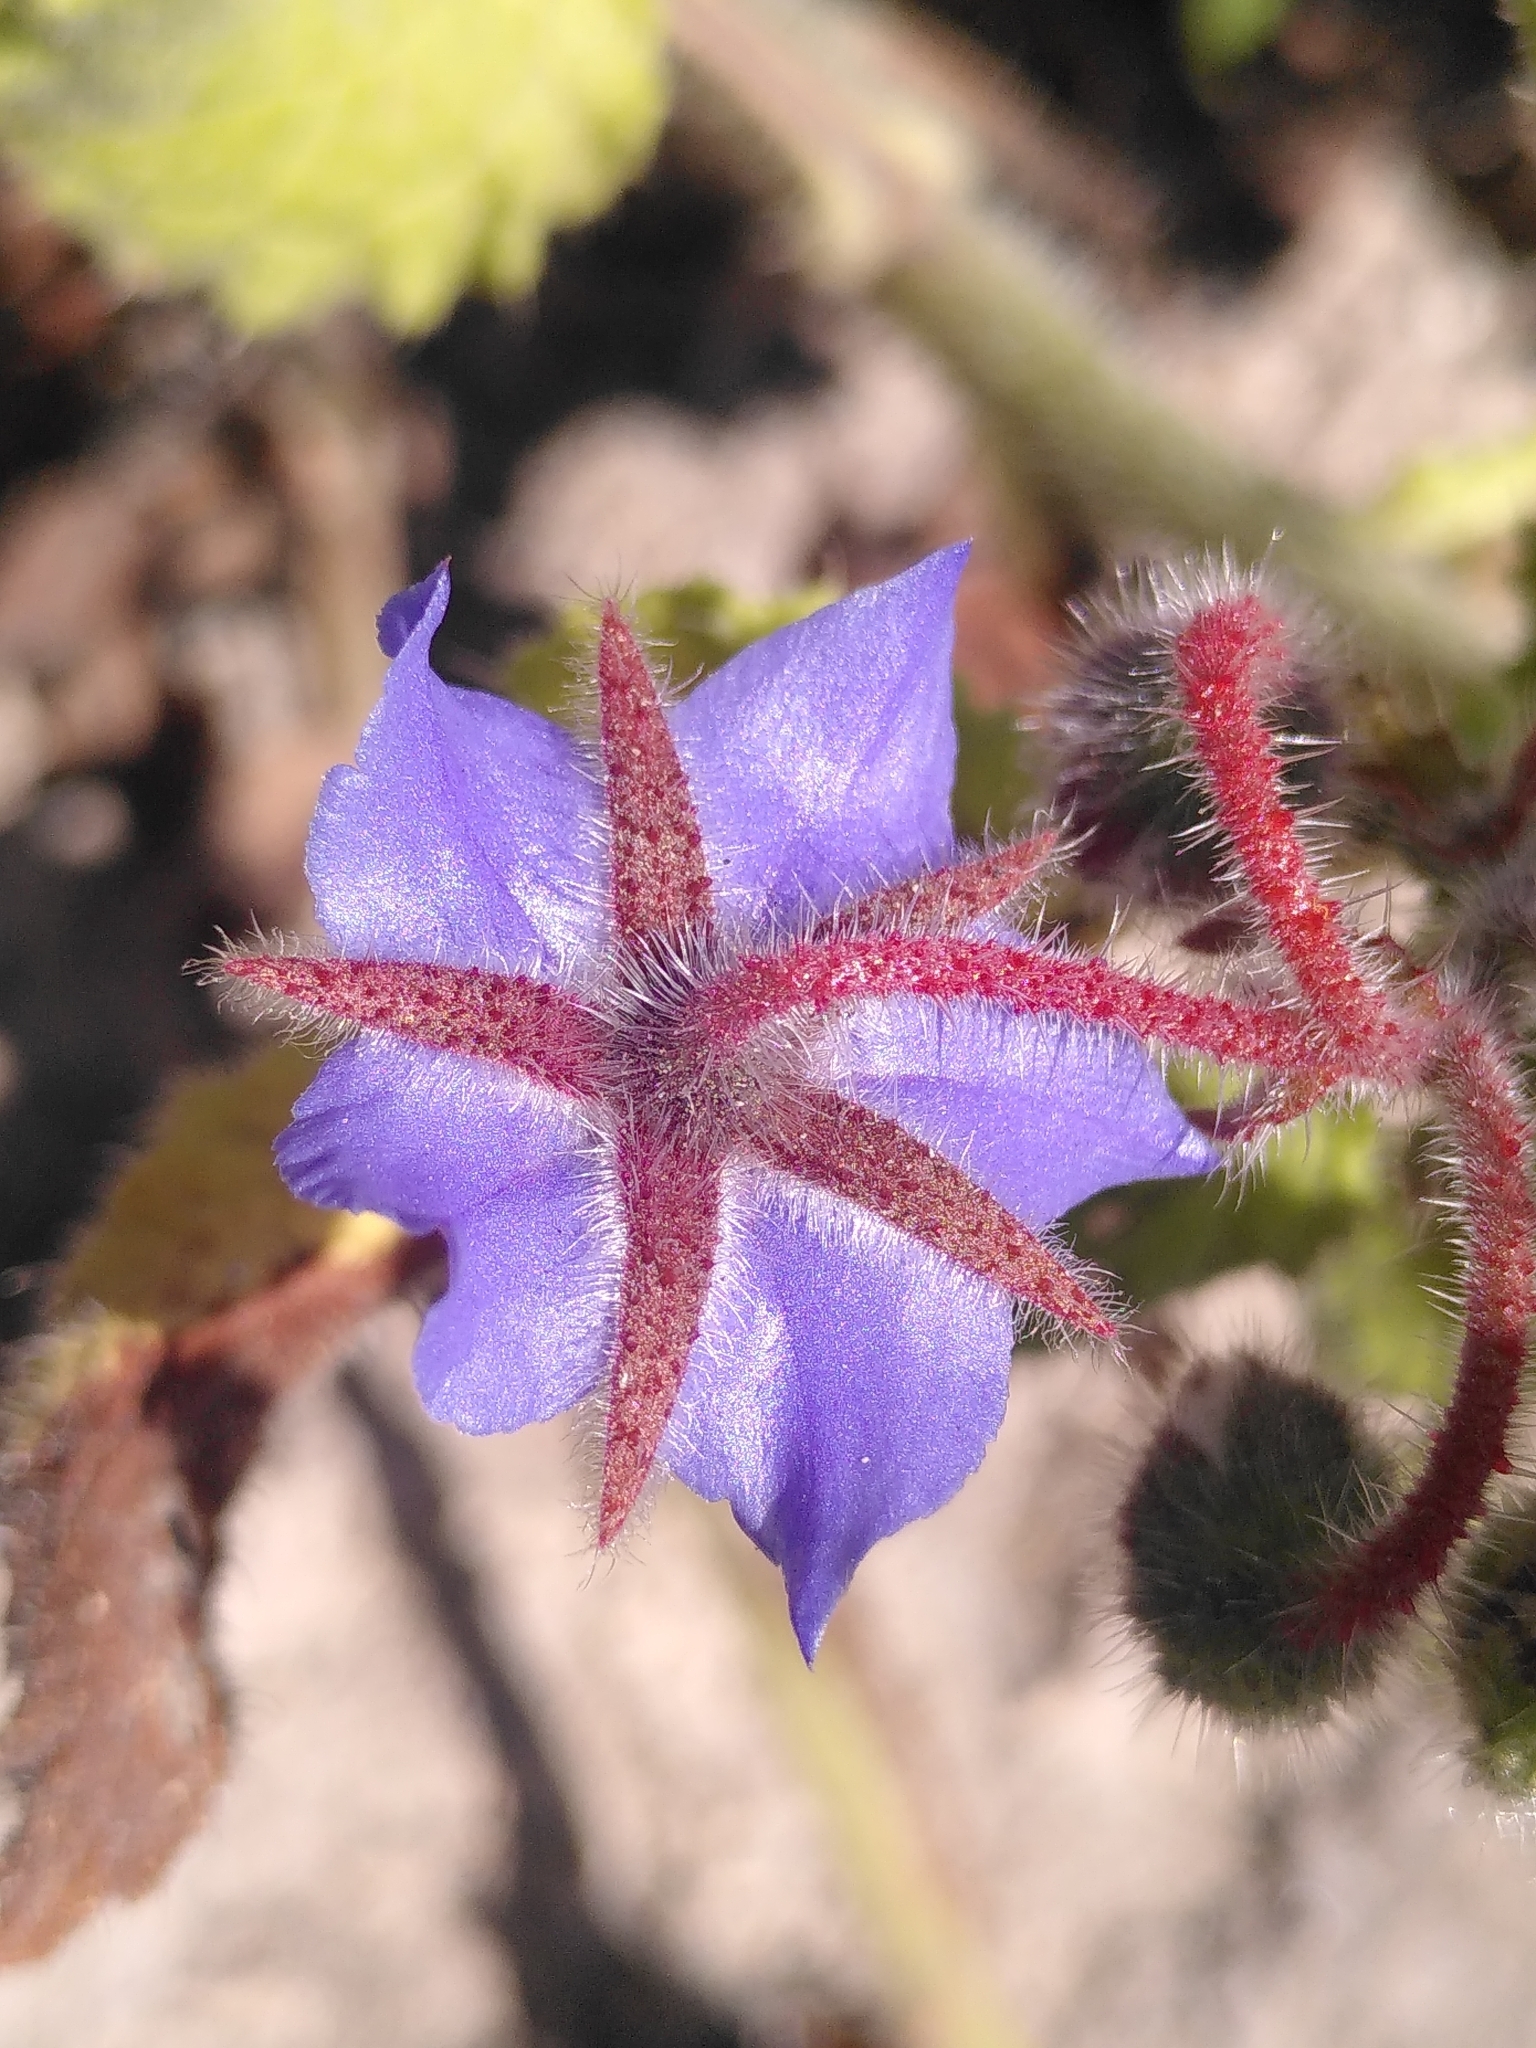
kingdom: Plantae
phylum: Tracheophyta
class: Magnoliopsida
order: Boraginales
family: Boraginaceae
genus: Borago
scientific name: Borago officinalis
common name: Borage
